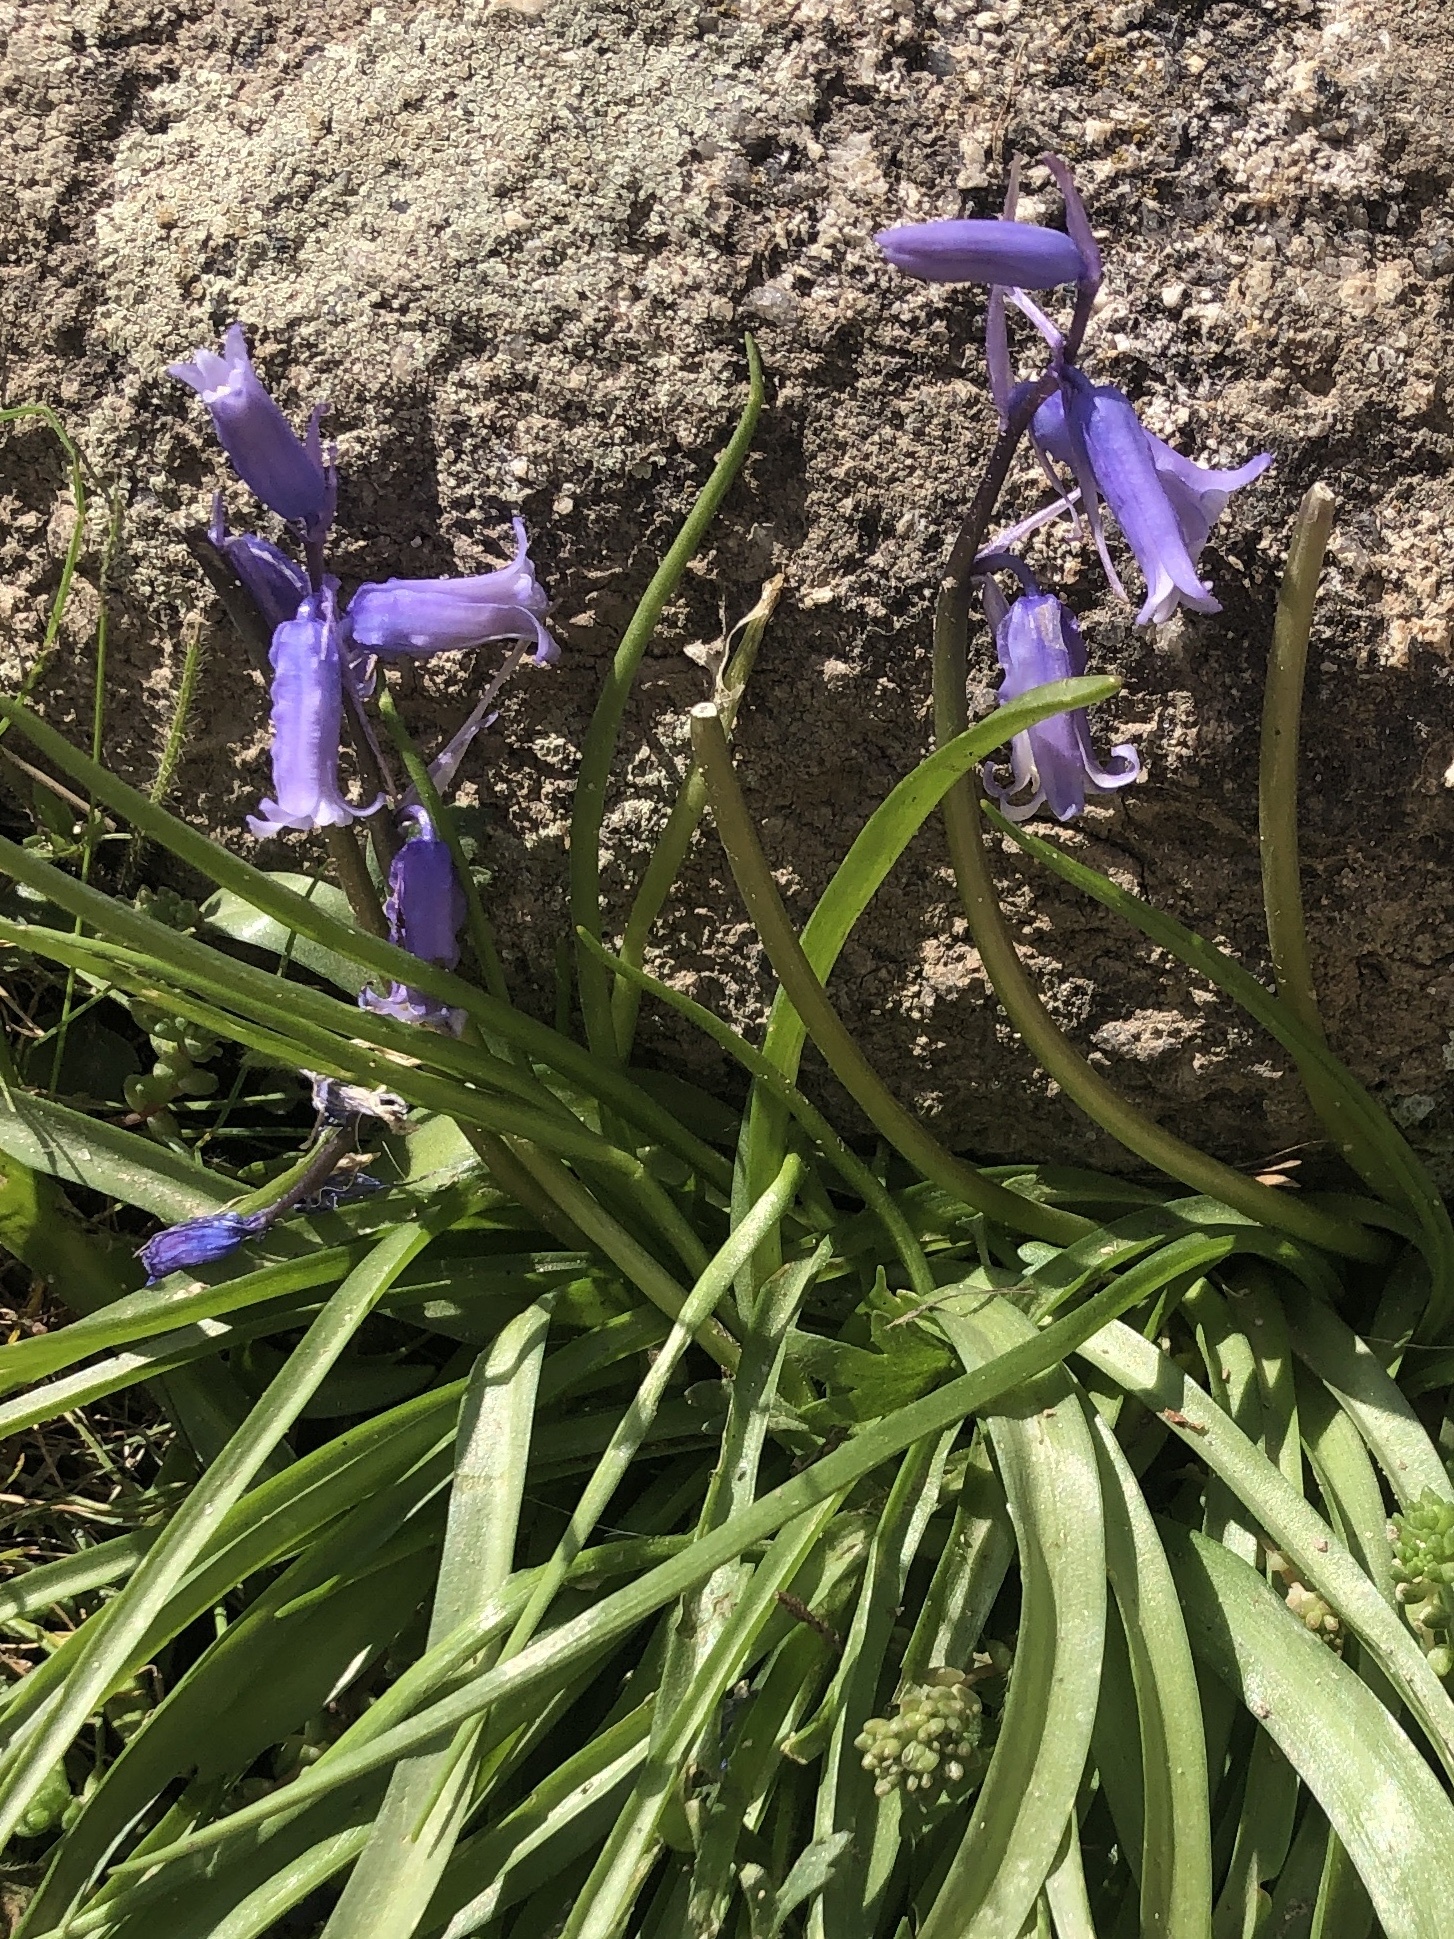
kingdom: Plantae
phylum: Tracheophyta
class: Liliopsida
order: Asparagales
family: Asparagaceae
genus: Hyacinthoides
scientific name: Hyacinthoides non-scripta
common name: Bluebell
